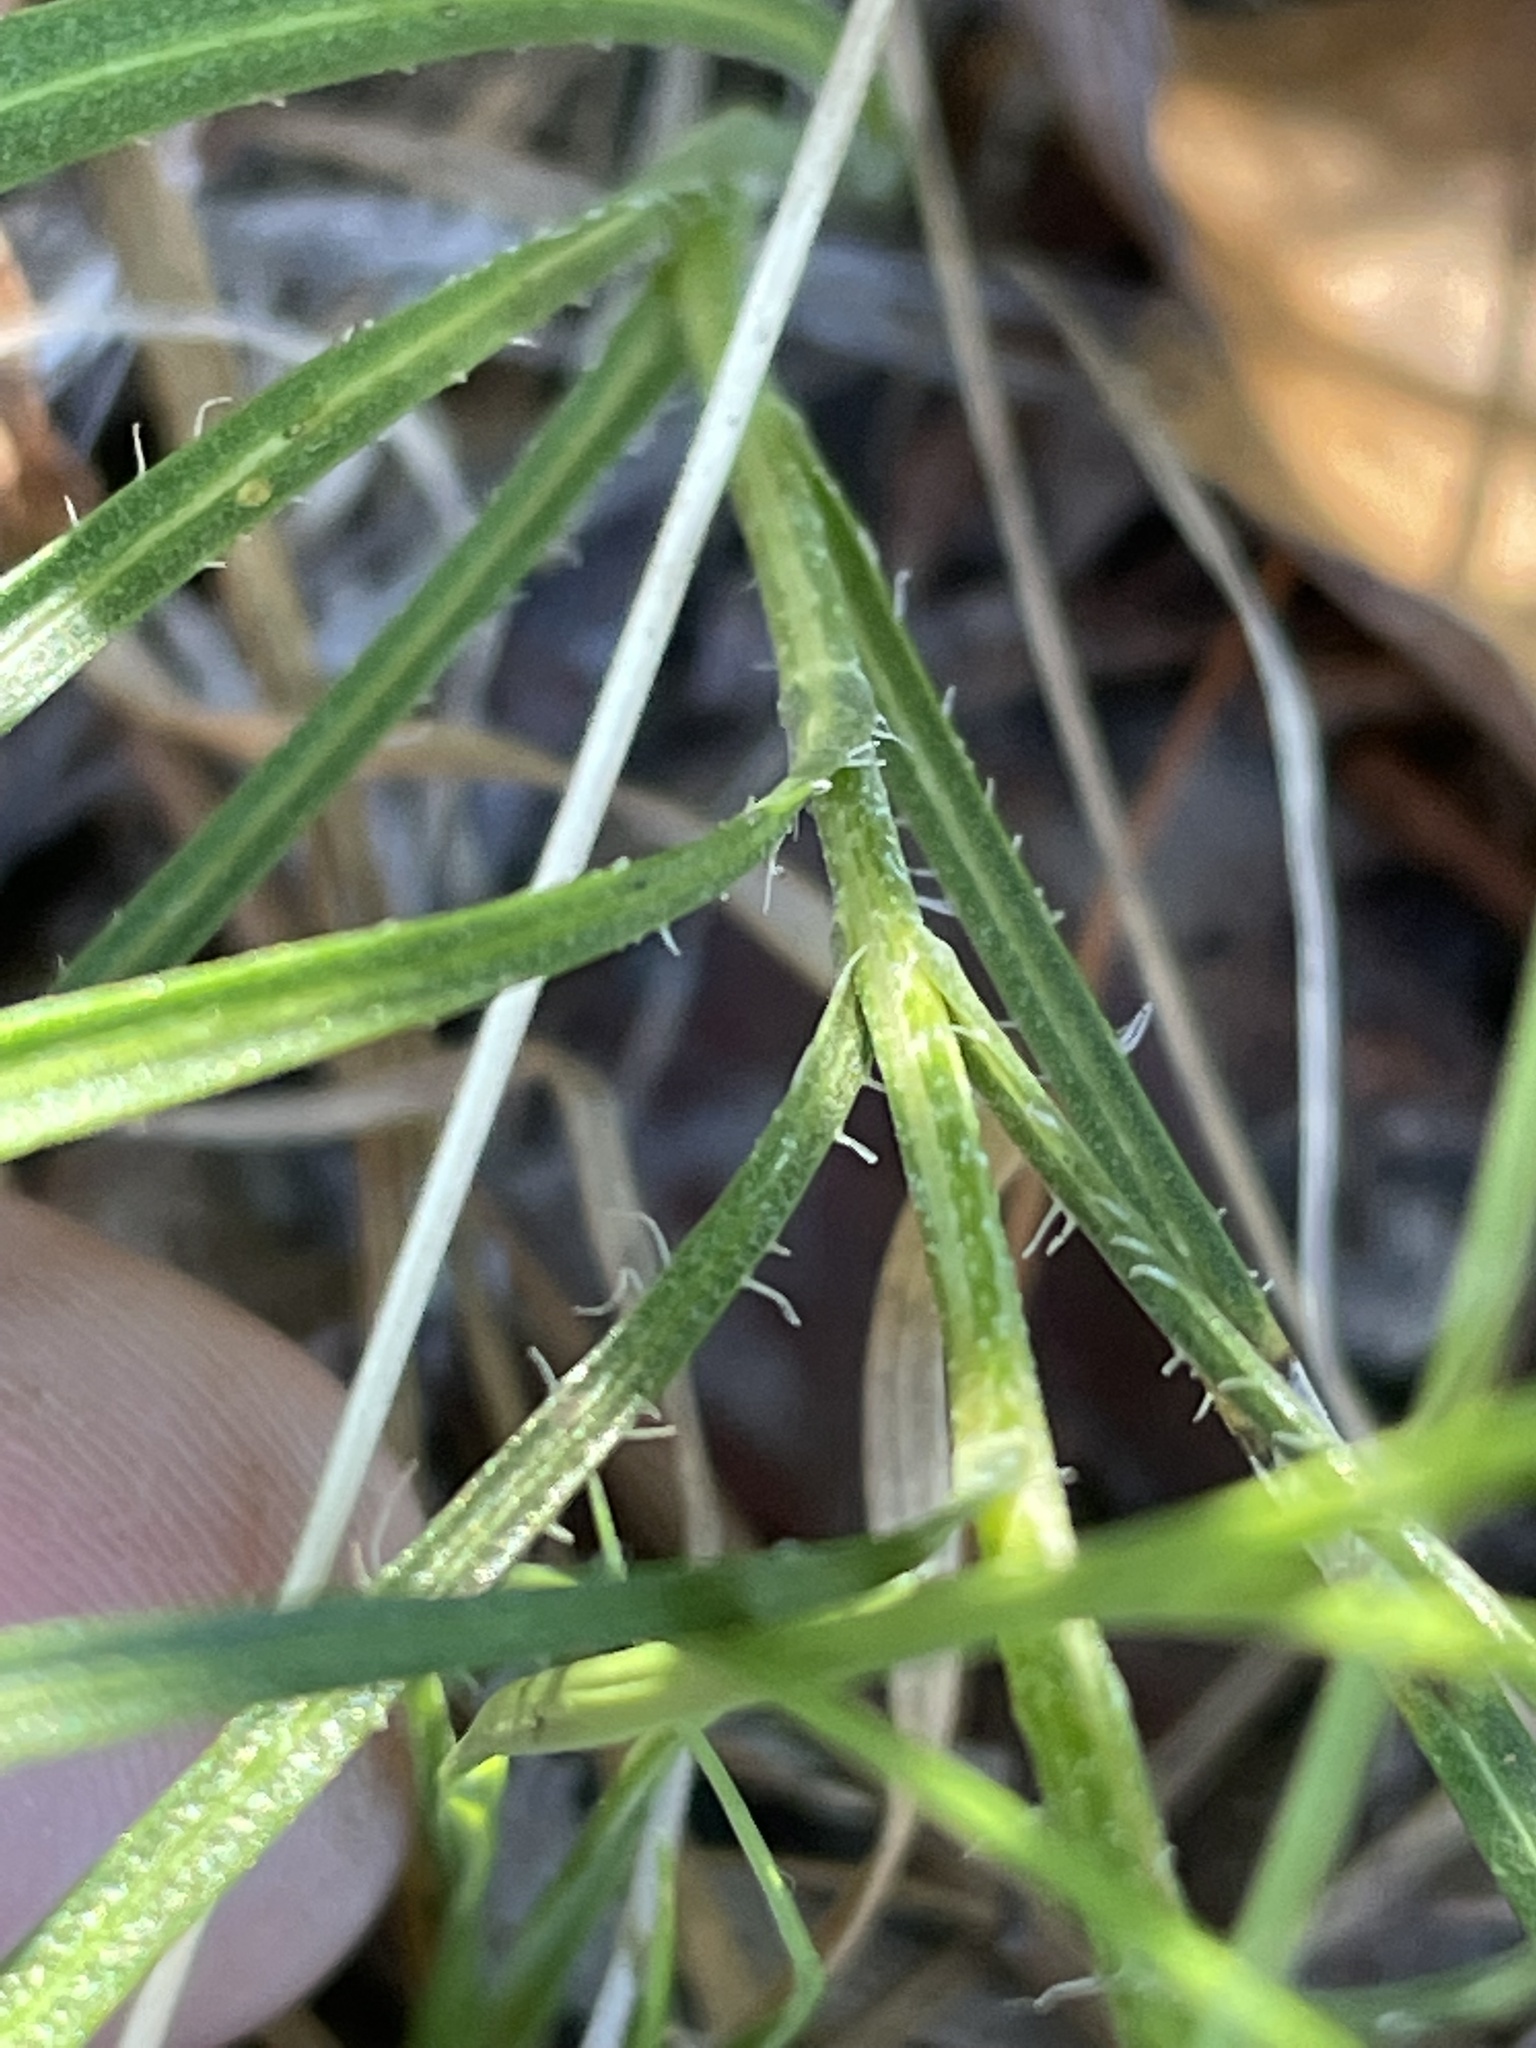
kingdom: Plantae
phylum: Tracheophyta
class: Magnoliopsida
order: Asterales
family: Asteraceae
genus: Liatris
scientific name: Liatris pilosa
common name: Grass-leaf gayfeather
